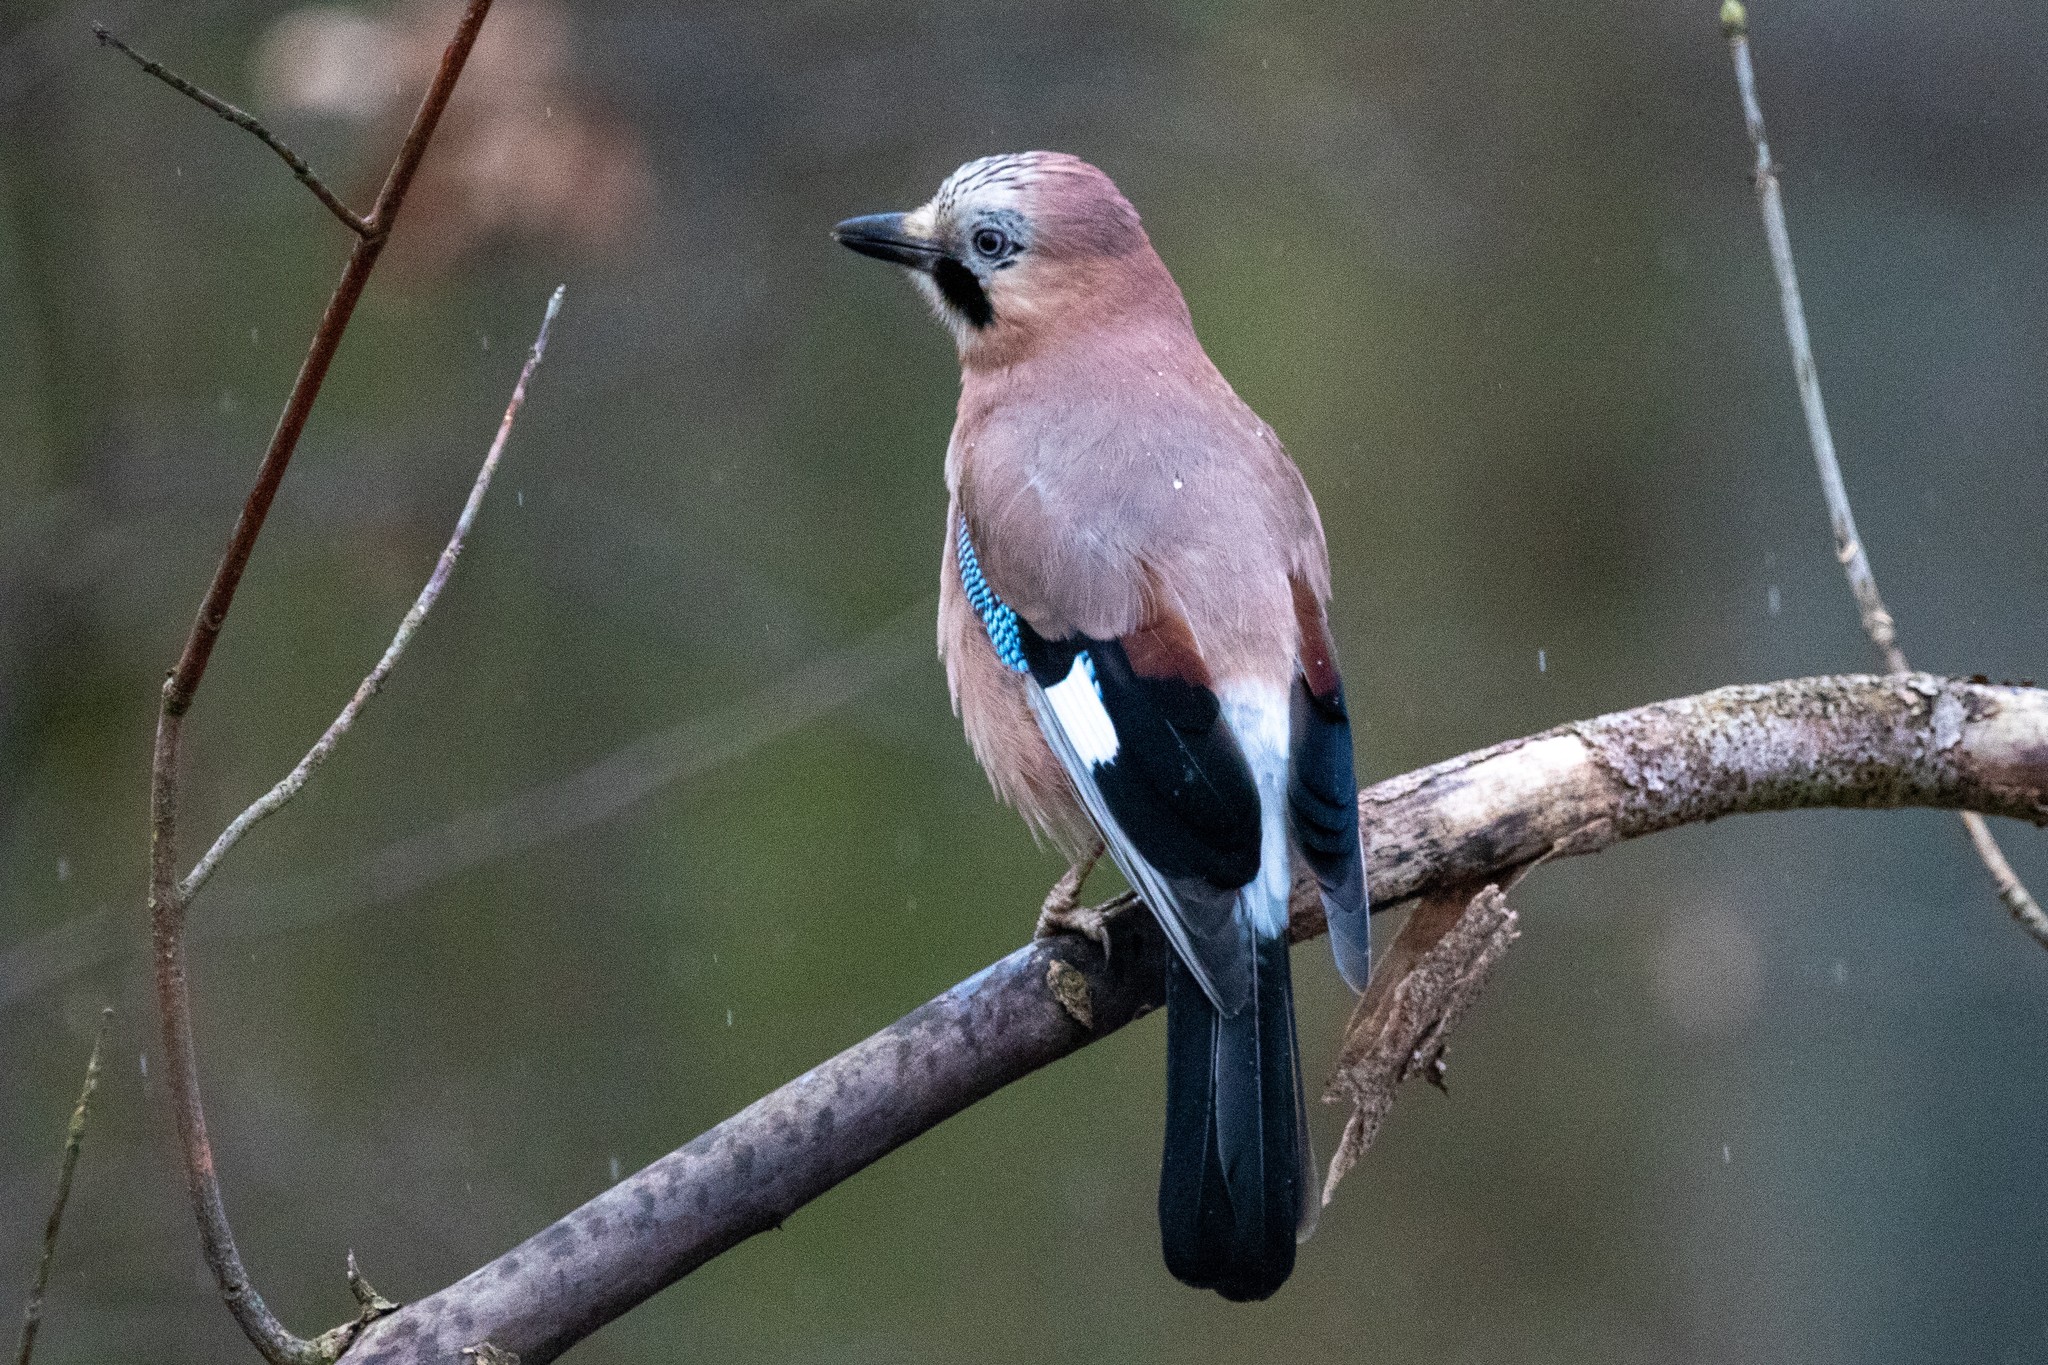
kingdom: Animalia
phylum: Chordata
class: Aves
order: Passeriformes
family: Corvidae
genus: Garrulus
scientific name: Garrulus glandarius
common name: Eurasian jay
